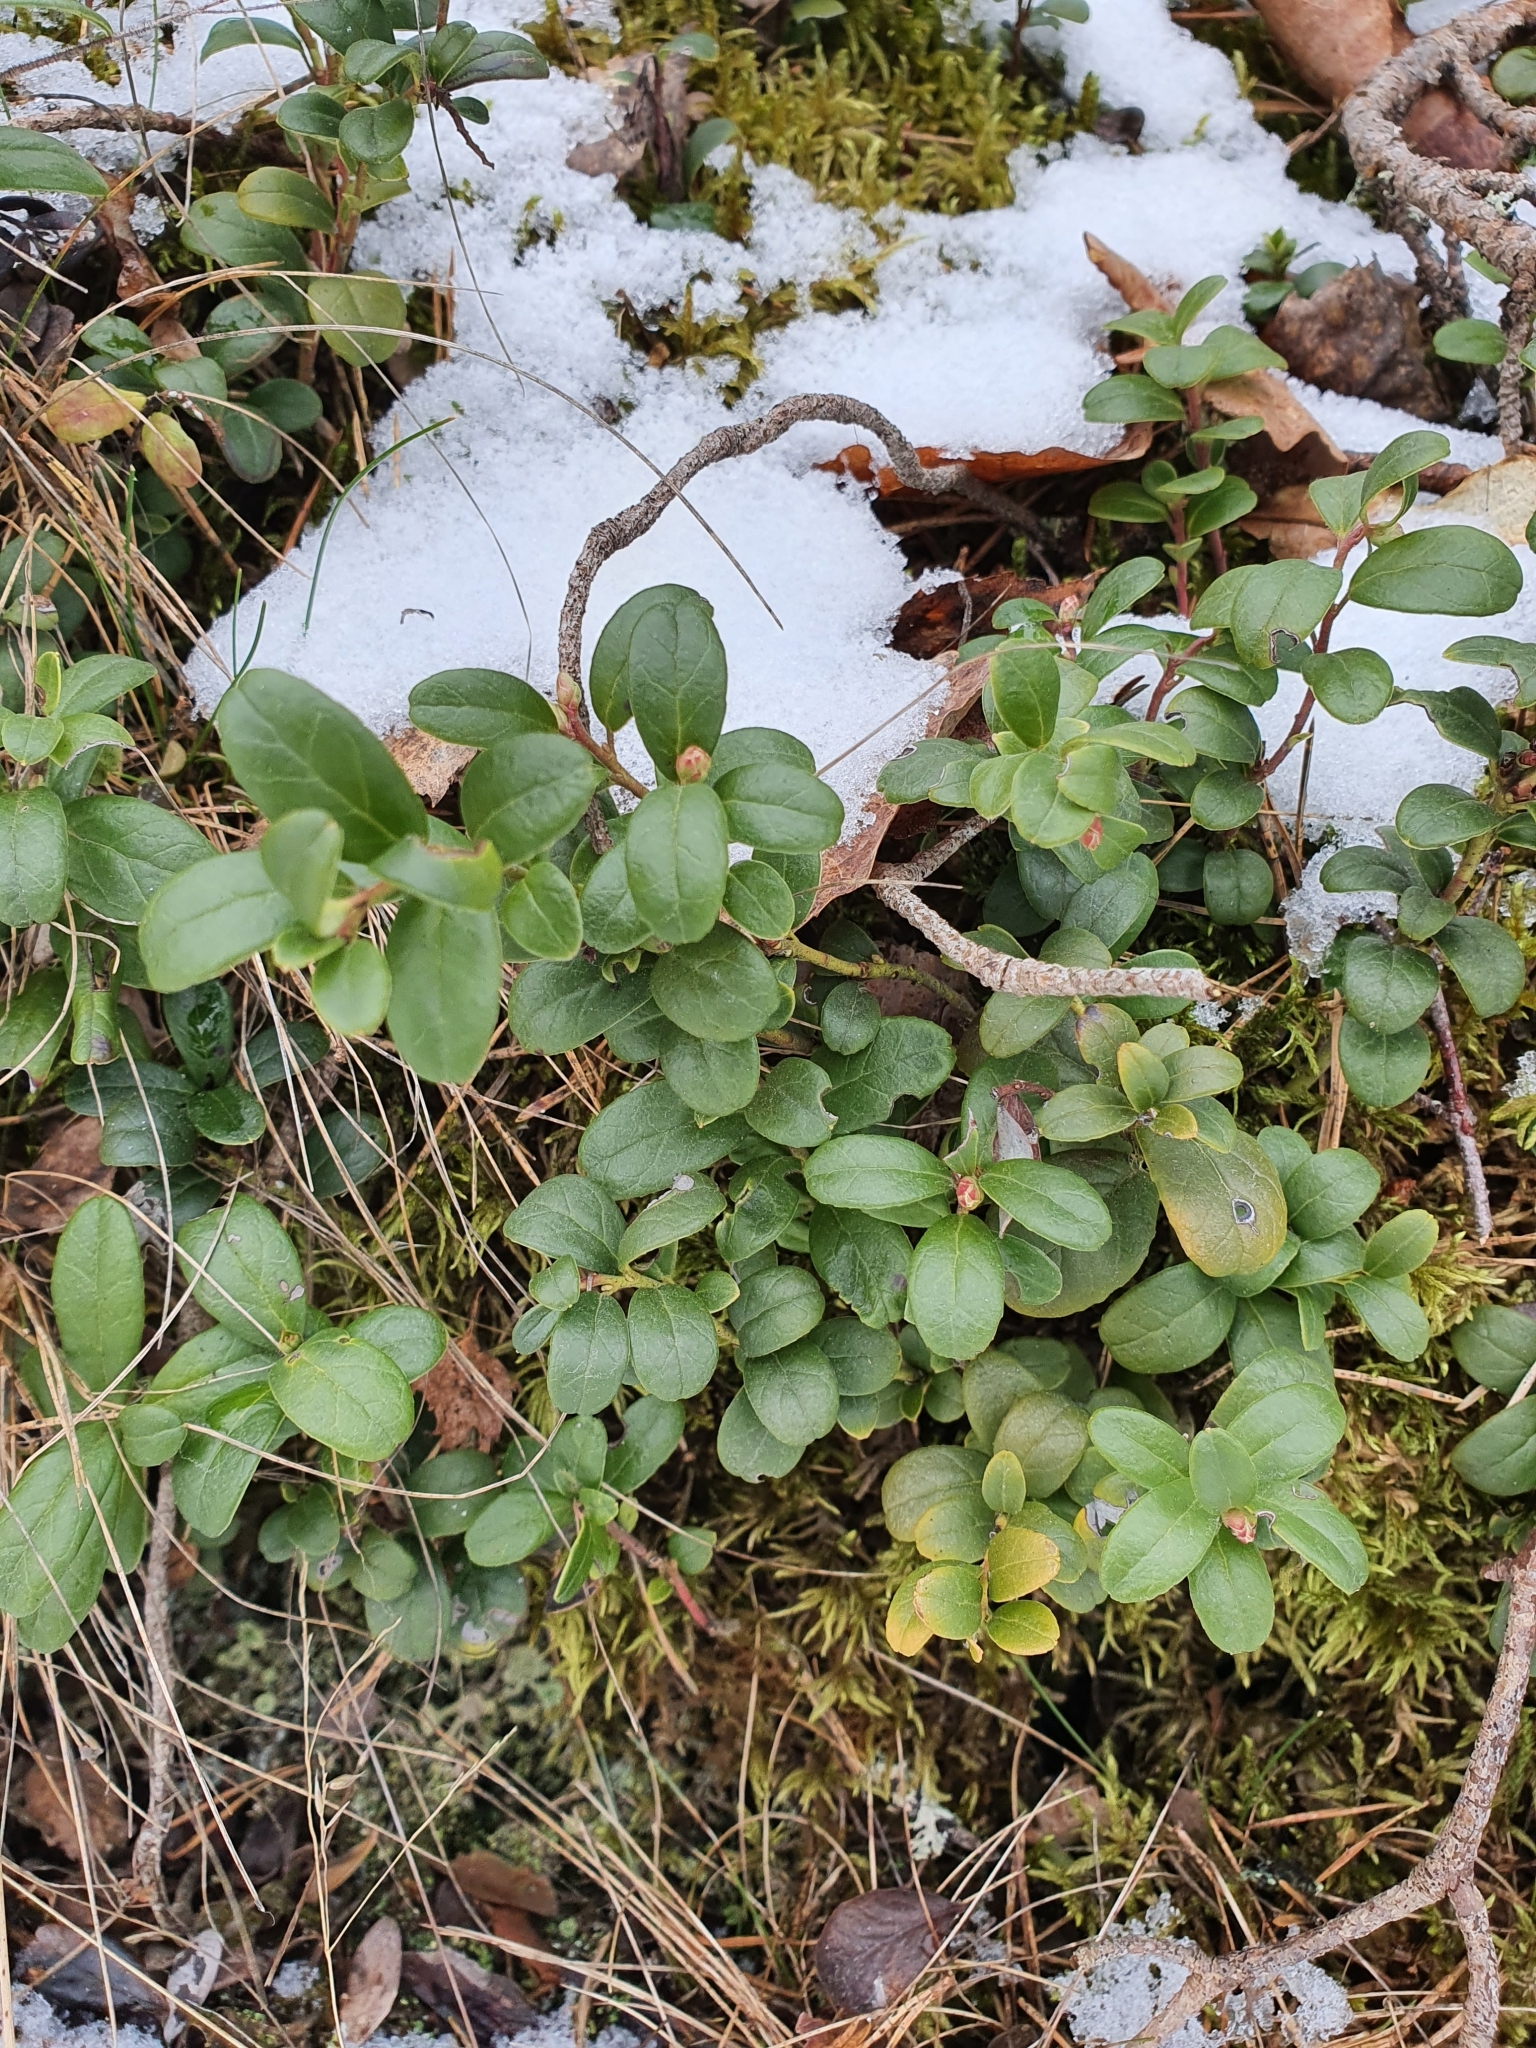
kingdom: Plantae
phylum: Tracheophyta
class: Magnoliopsida
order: Ericales
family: Ericaceae
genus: Vaccinium
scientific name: Vaccinium vitis-idaea
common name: Cowberry
